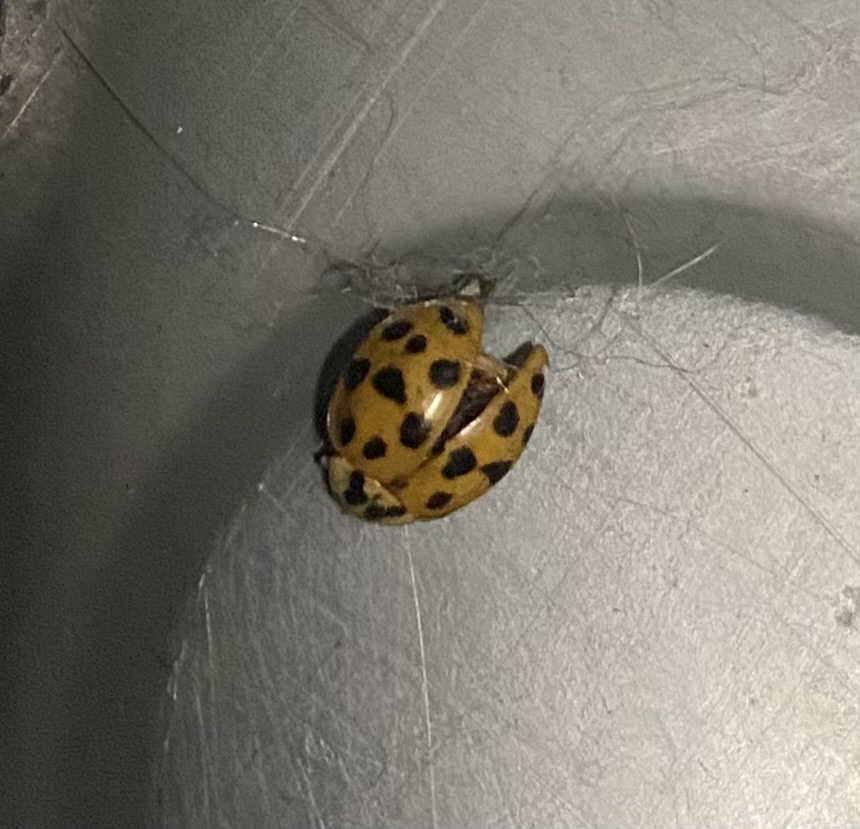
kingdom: Animalia
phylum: Arthropoda
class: Insecta
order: Coleoptera
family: Coccinellidae
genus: Harmonia
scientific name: Harmonia axyridis
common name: Harlequin ladybird
